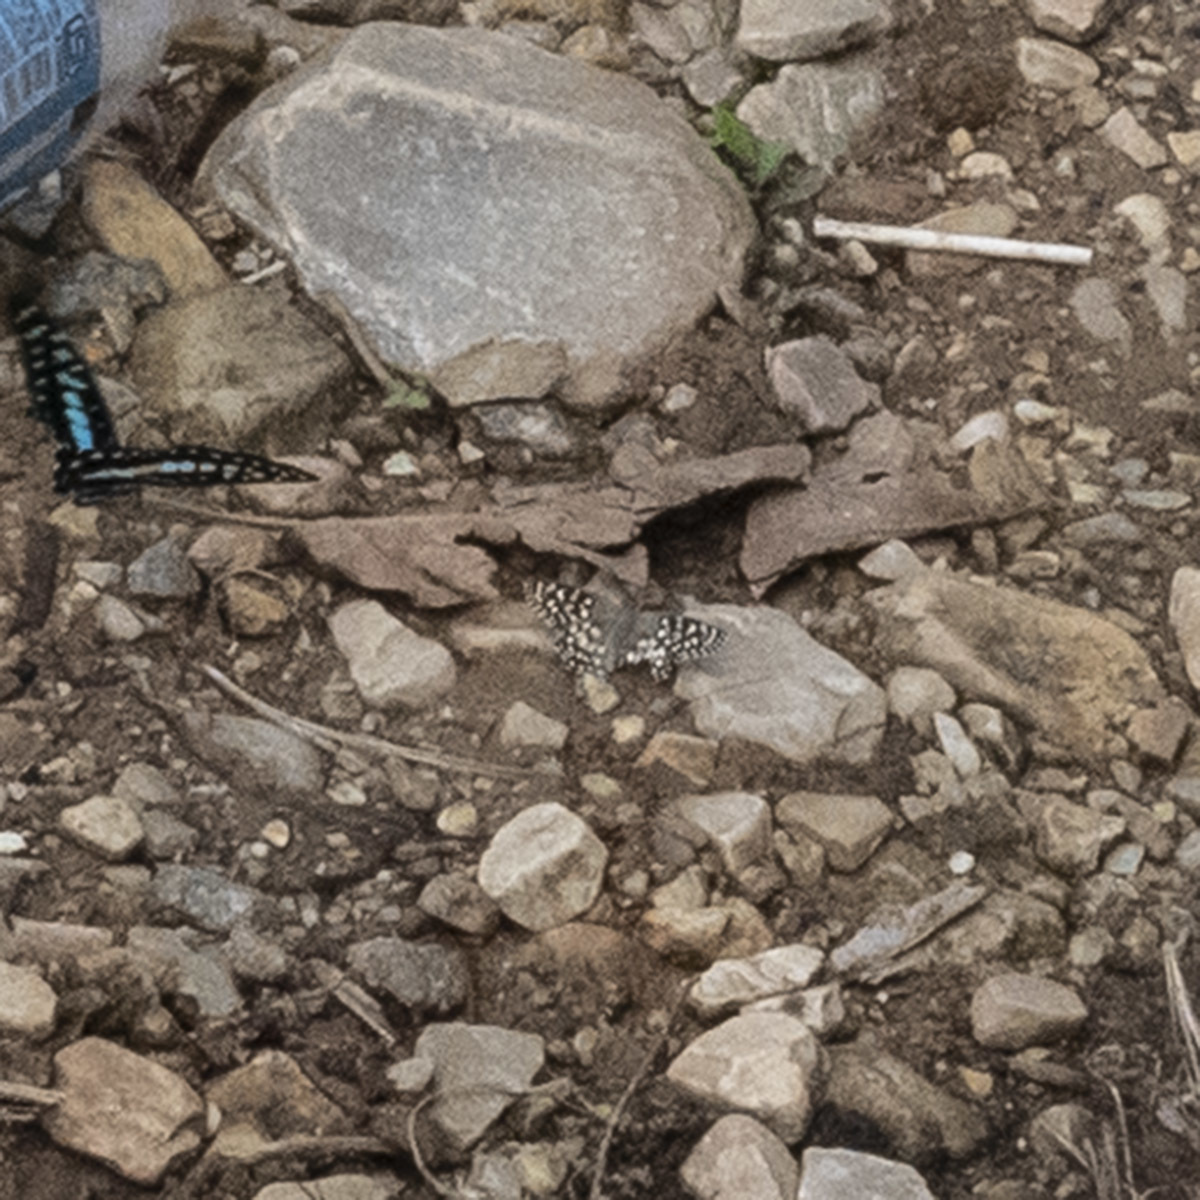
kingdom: Animalia
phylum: Arthropoda
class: Insecta
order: Lepidoptera
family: Hesperiidae
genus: Caprona
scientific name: Caprona agama
